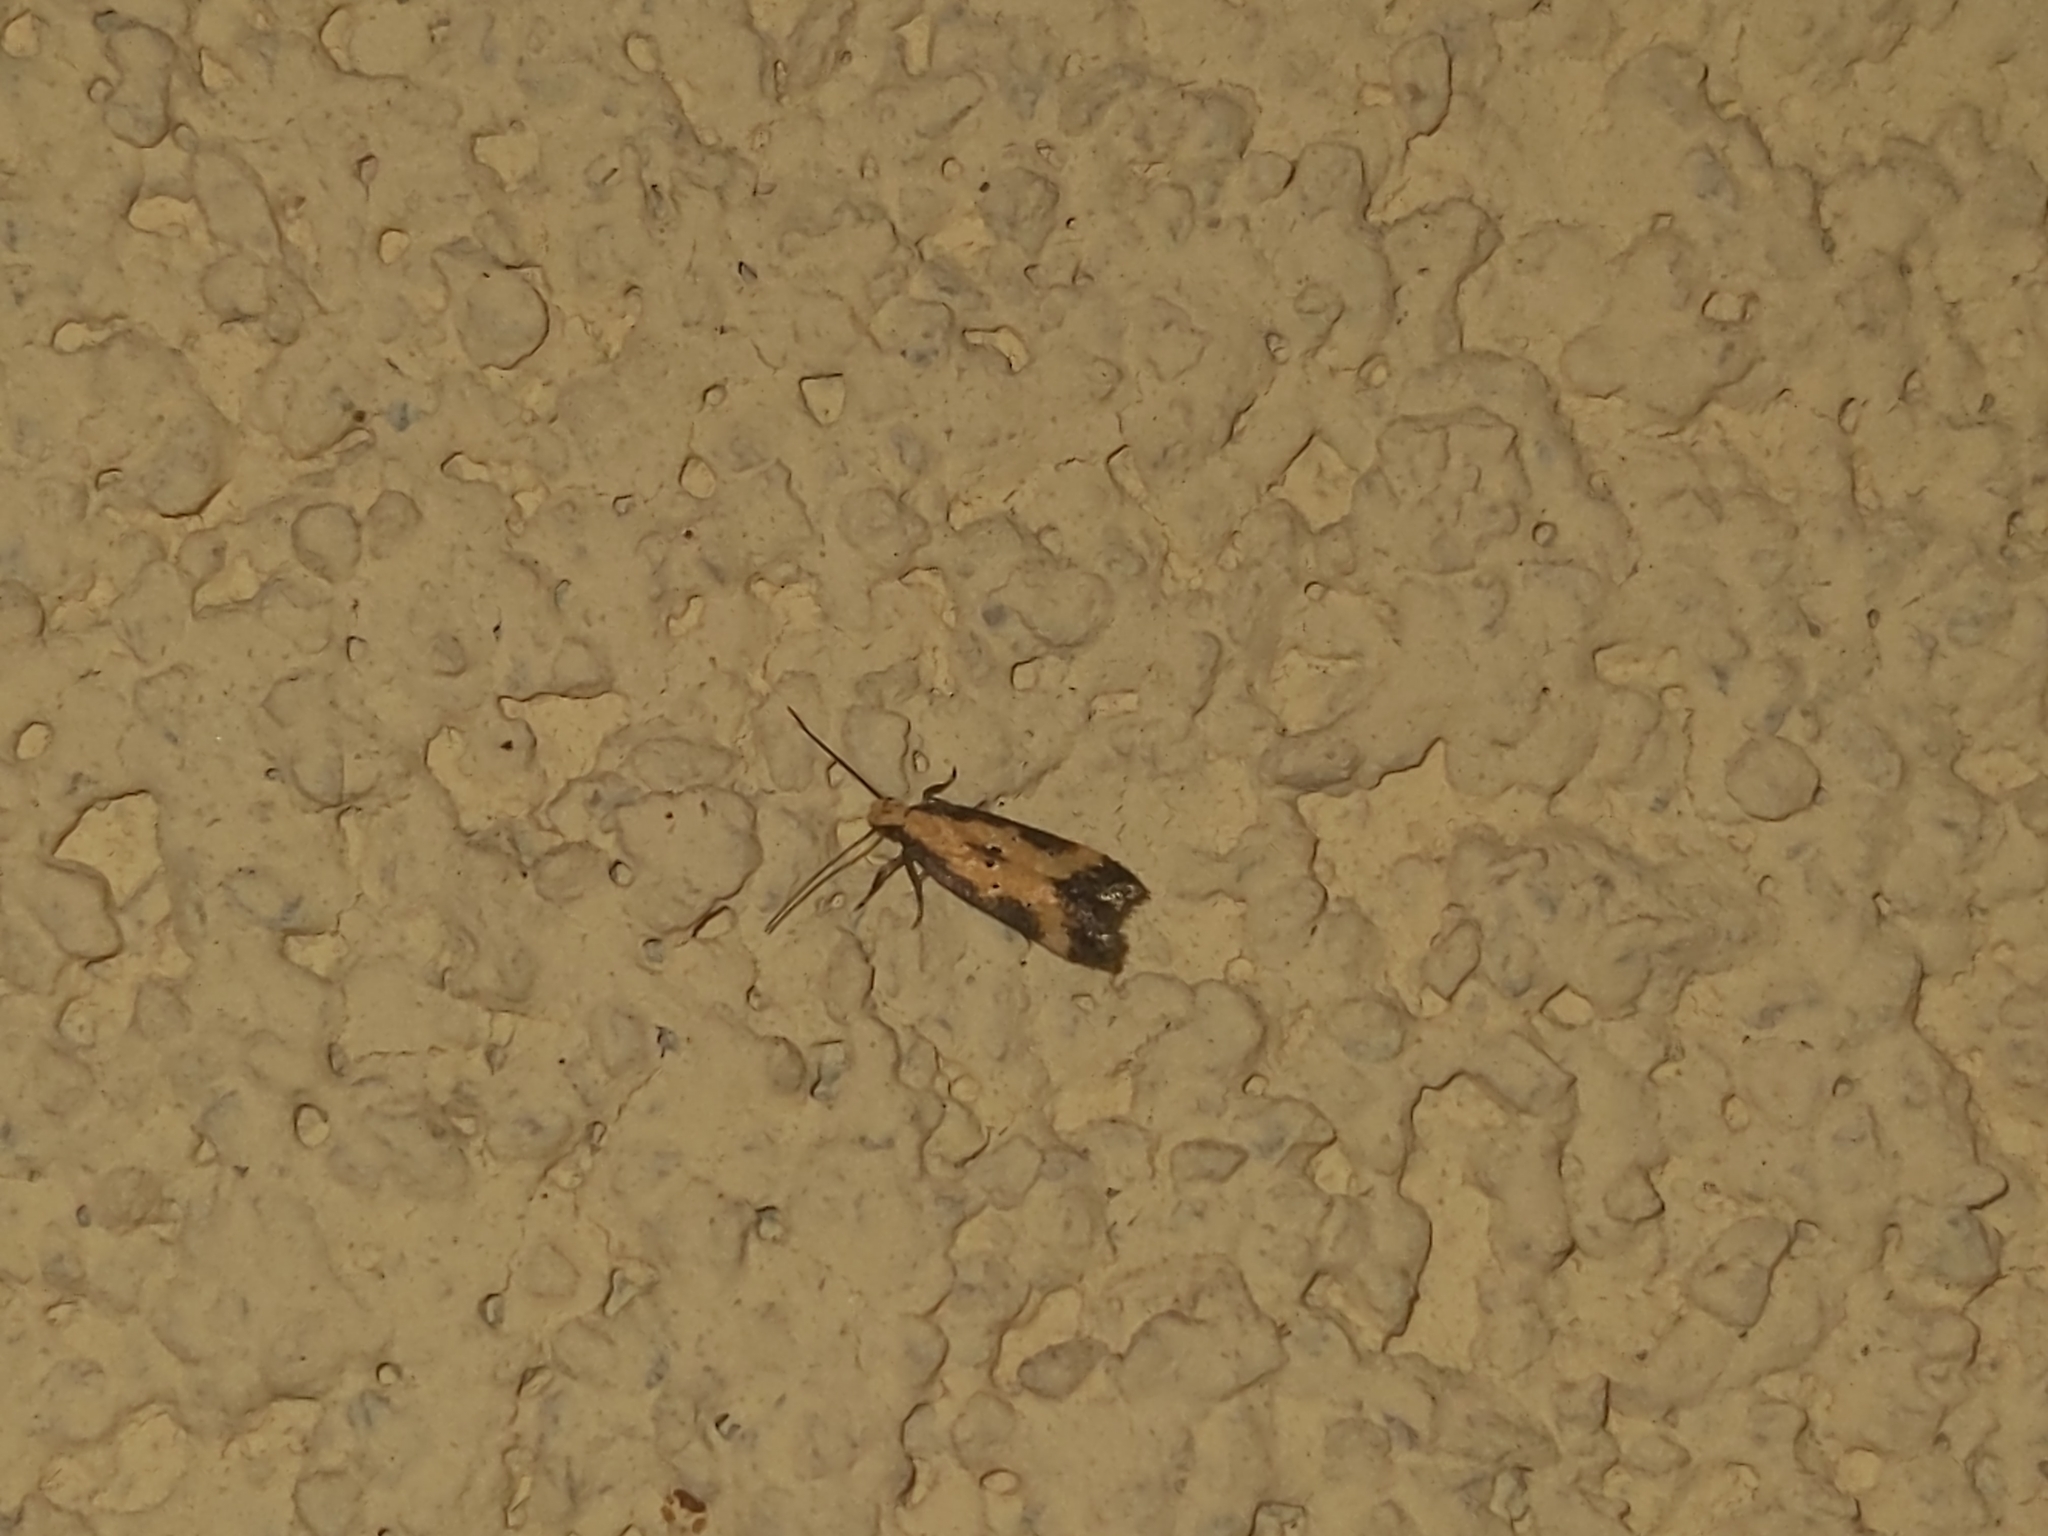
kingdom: Animalia
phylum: Arthropoda
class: Insecta
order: Lepidoptera
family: Gelechiidae
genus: Brachmia
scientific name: Brachmia dimidiella
